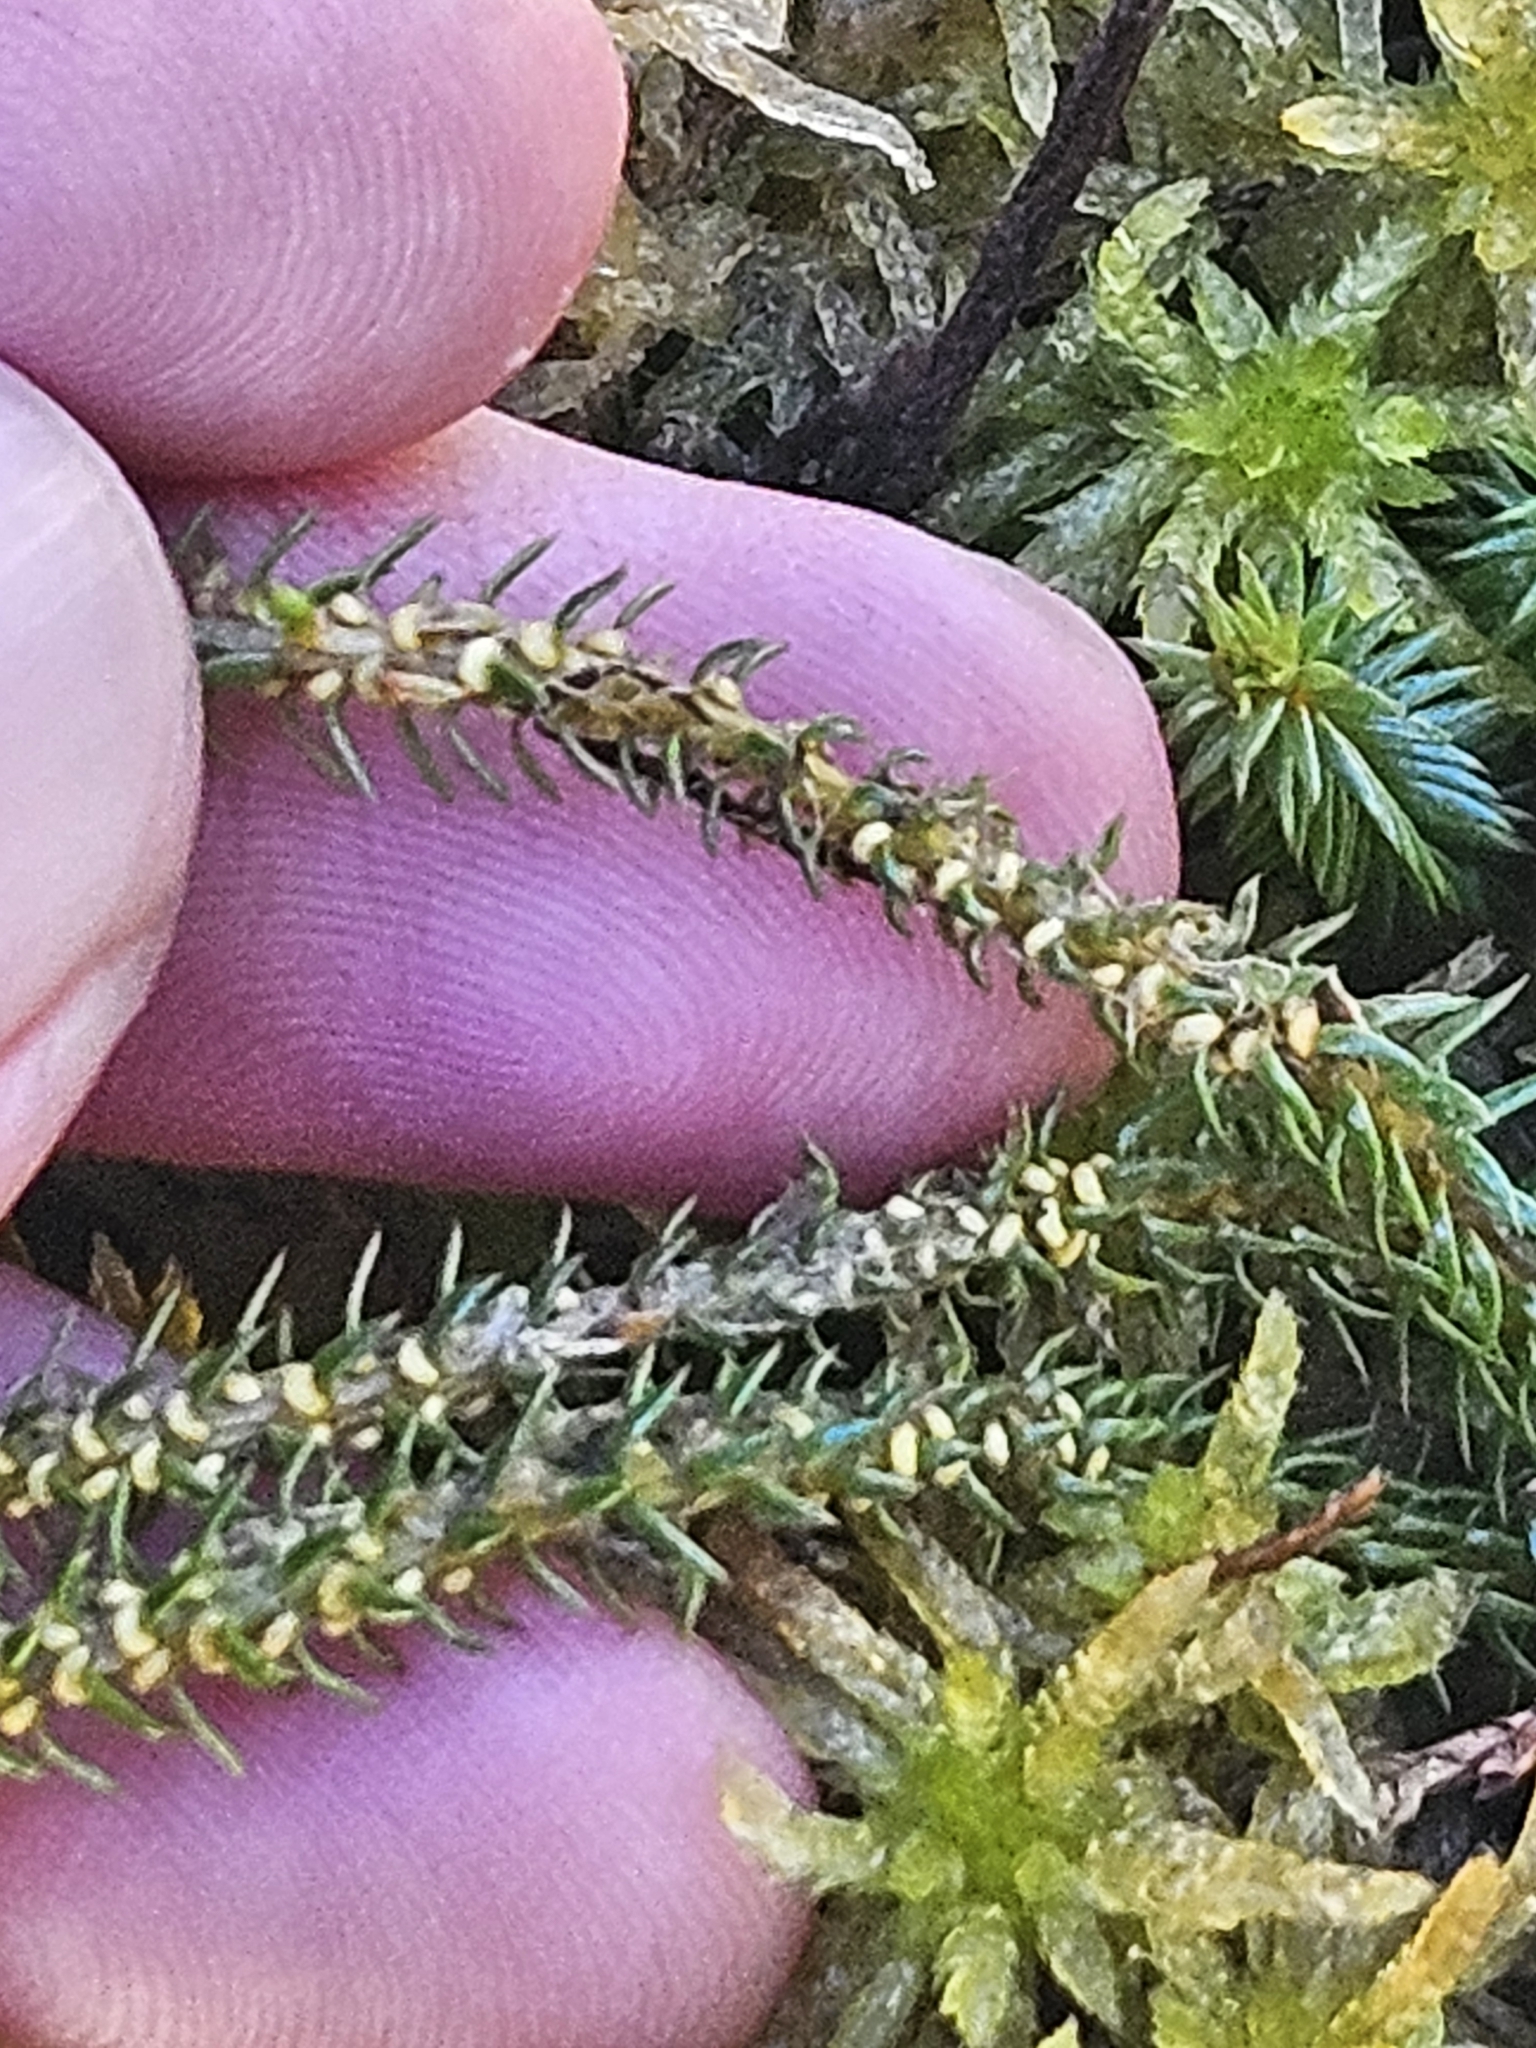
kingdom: Plantae
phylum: Tracheophyta
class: Lycopodiopsida
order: Lycopodiales
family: Lycopodiaceae
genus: Huperzia
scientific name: Huperzia somae
